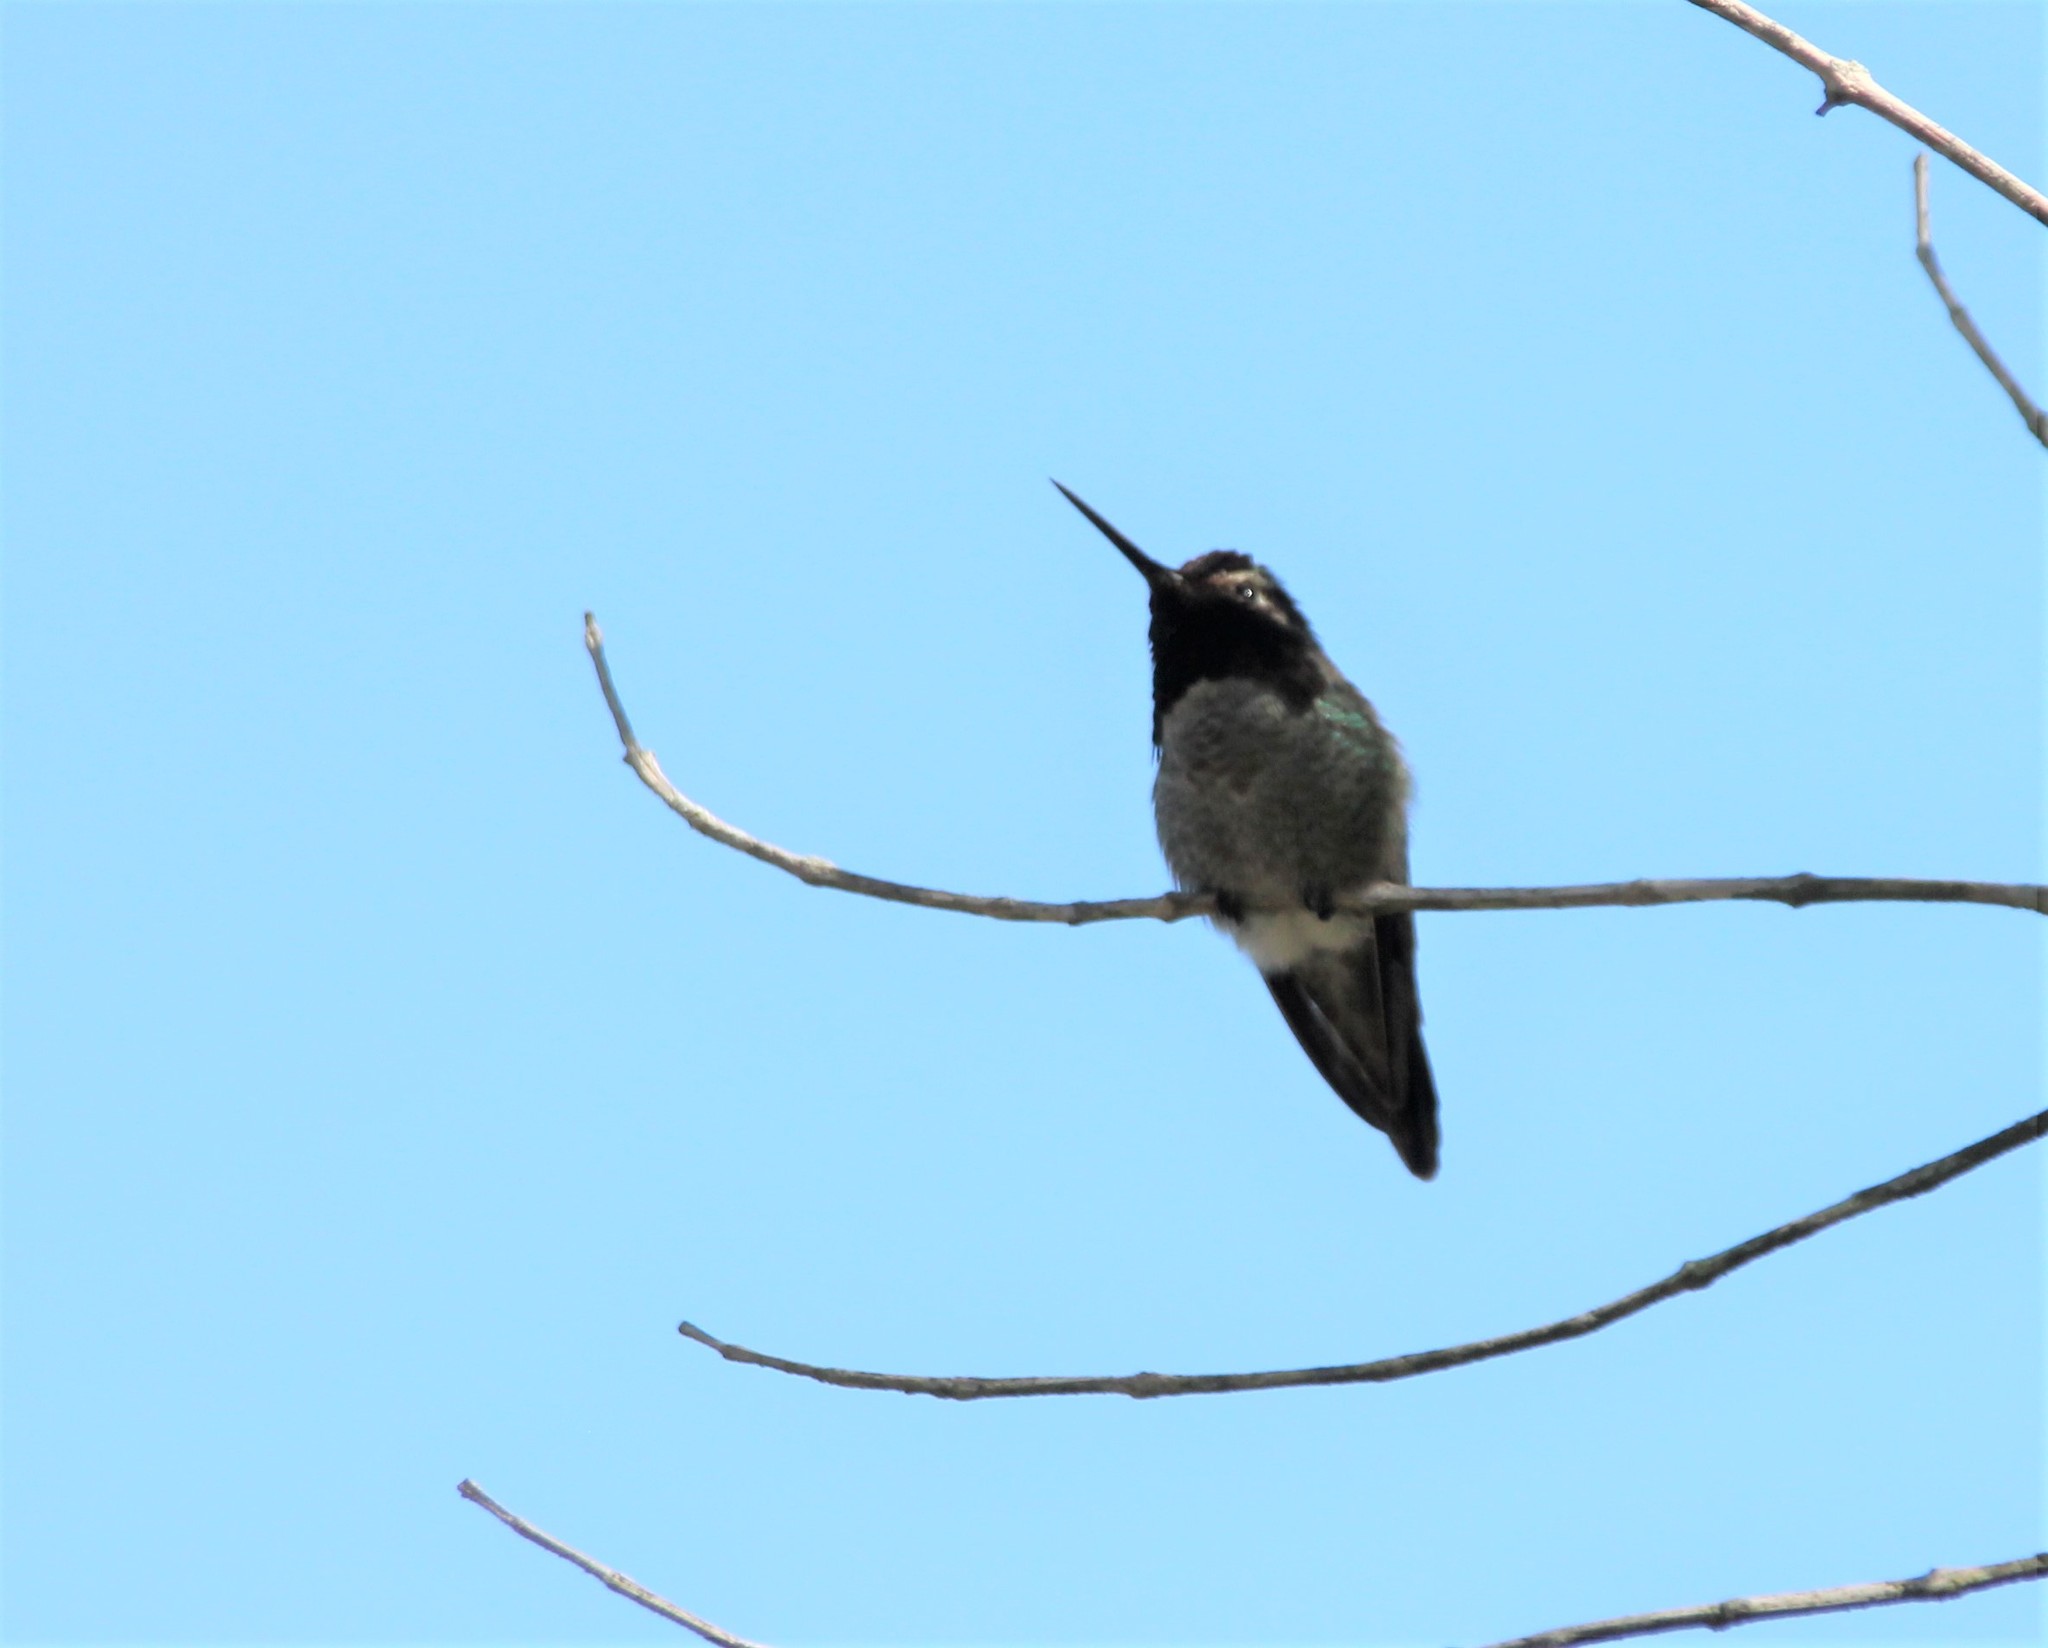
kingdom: Animalia
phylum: Chordata
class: Aves
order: Apodiformes
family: Trochilidae
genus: Calypte
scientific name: Calypte anna
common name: Anna's hummingbird
